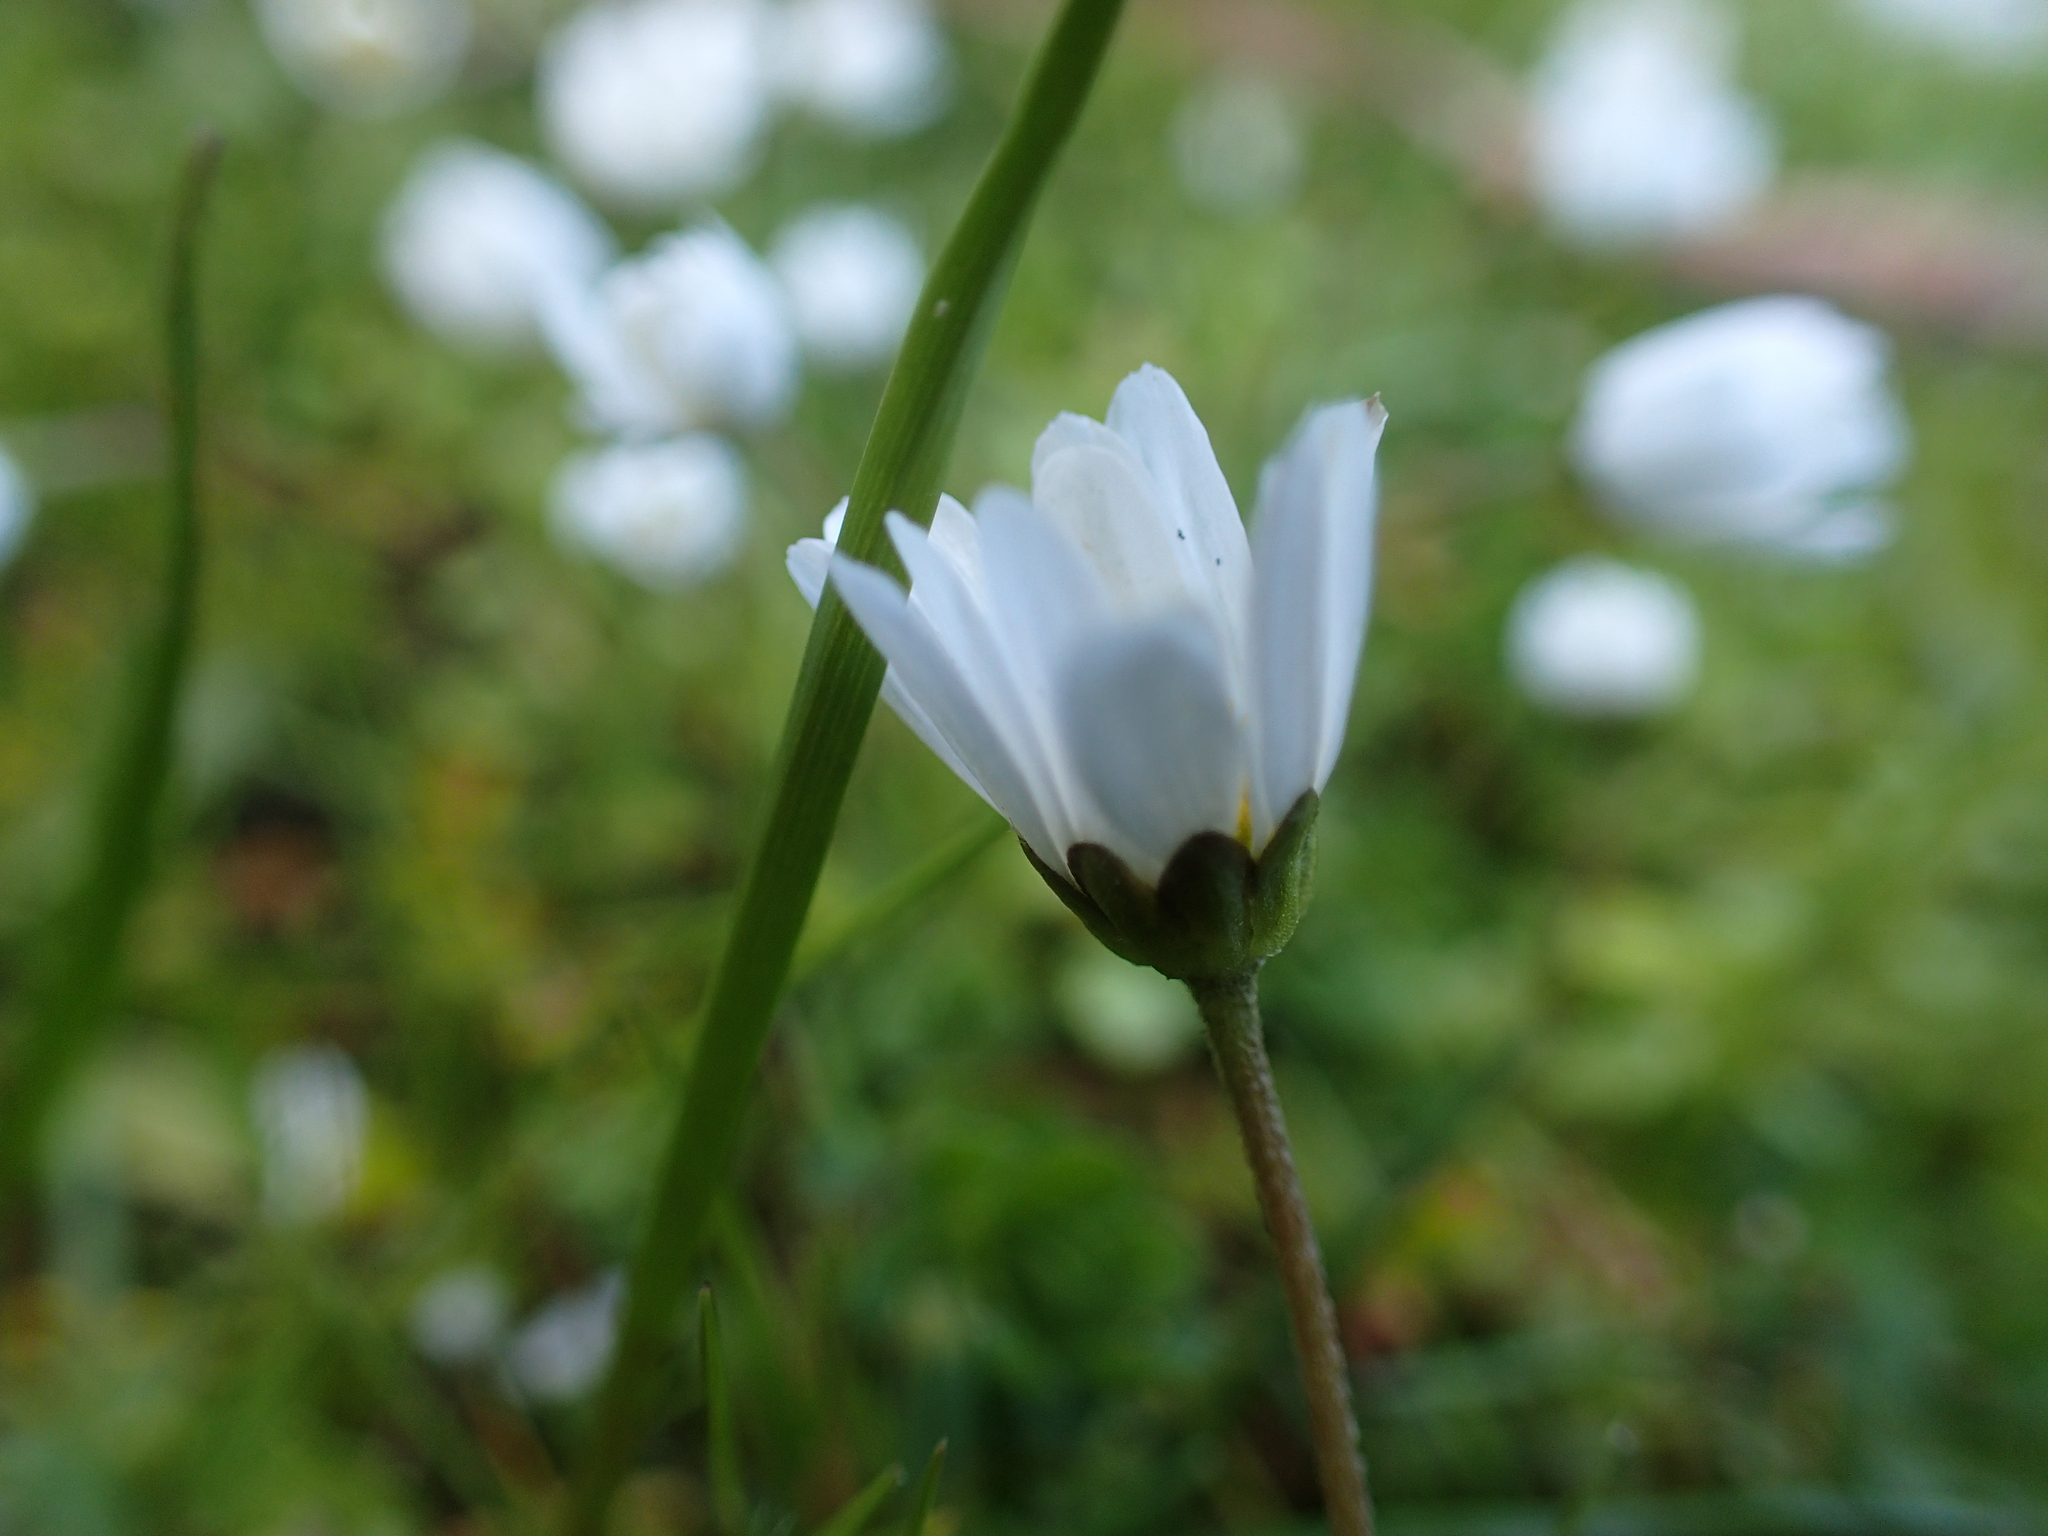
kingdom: Plantae
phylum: Tracheophyta
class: Magnoliopsida
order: Asterales
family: Asteraceae
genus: Bellis
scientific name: Bellis annua
